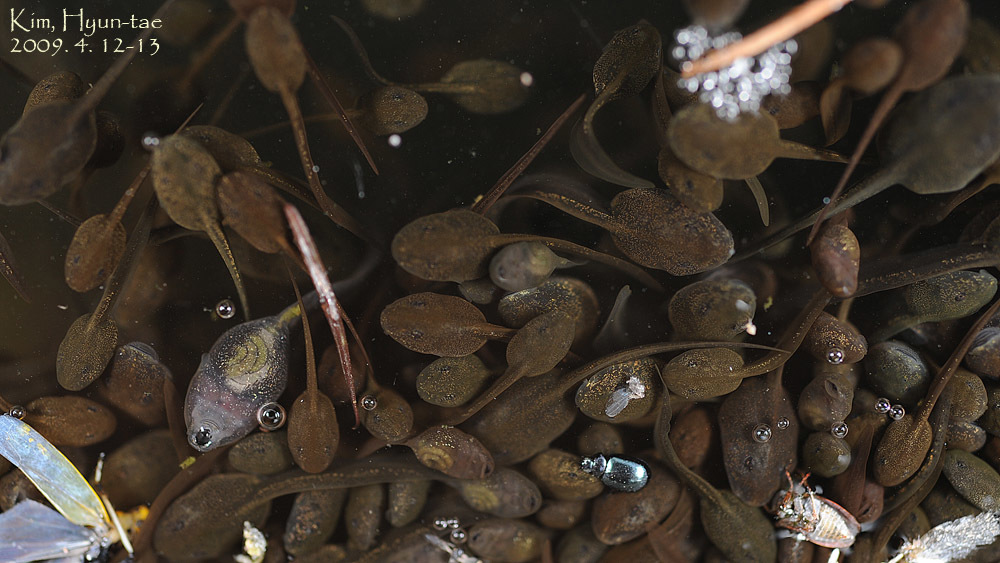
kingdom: Animalia
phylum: Chordata
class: Amphibia
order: Anura
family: Ranidae
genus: Rana
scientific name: Rana uenoi
